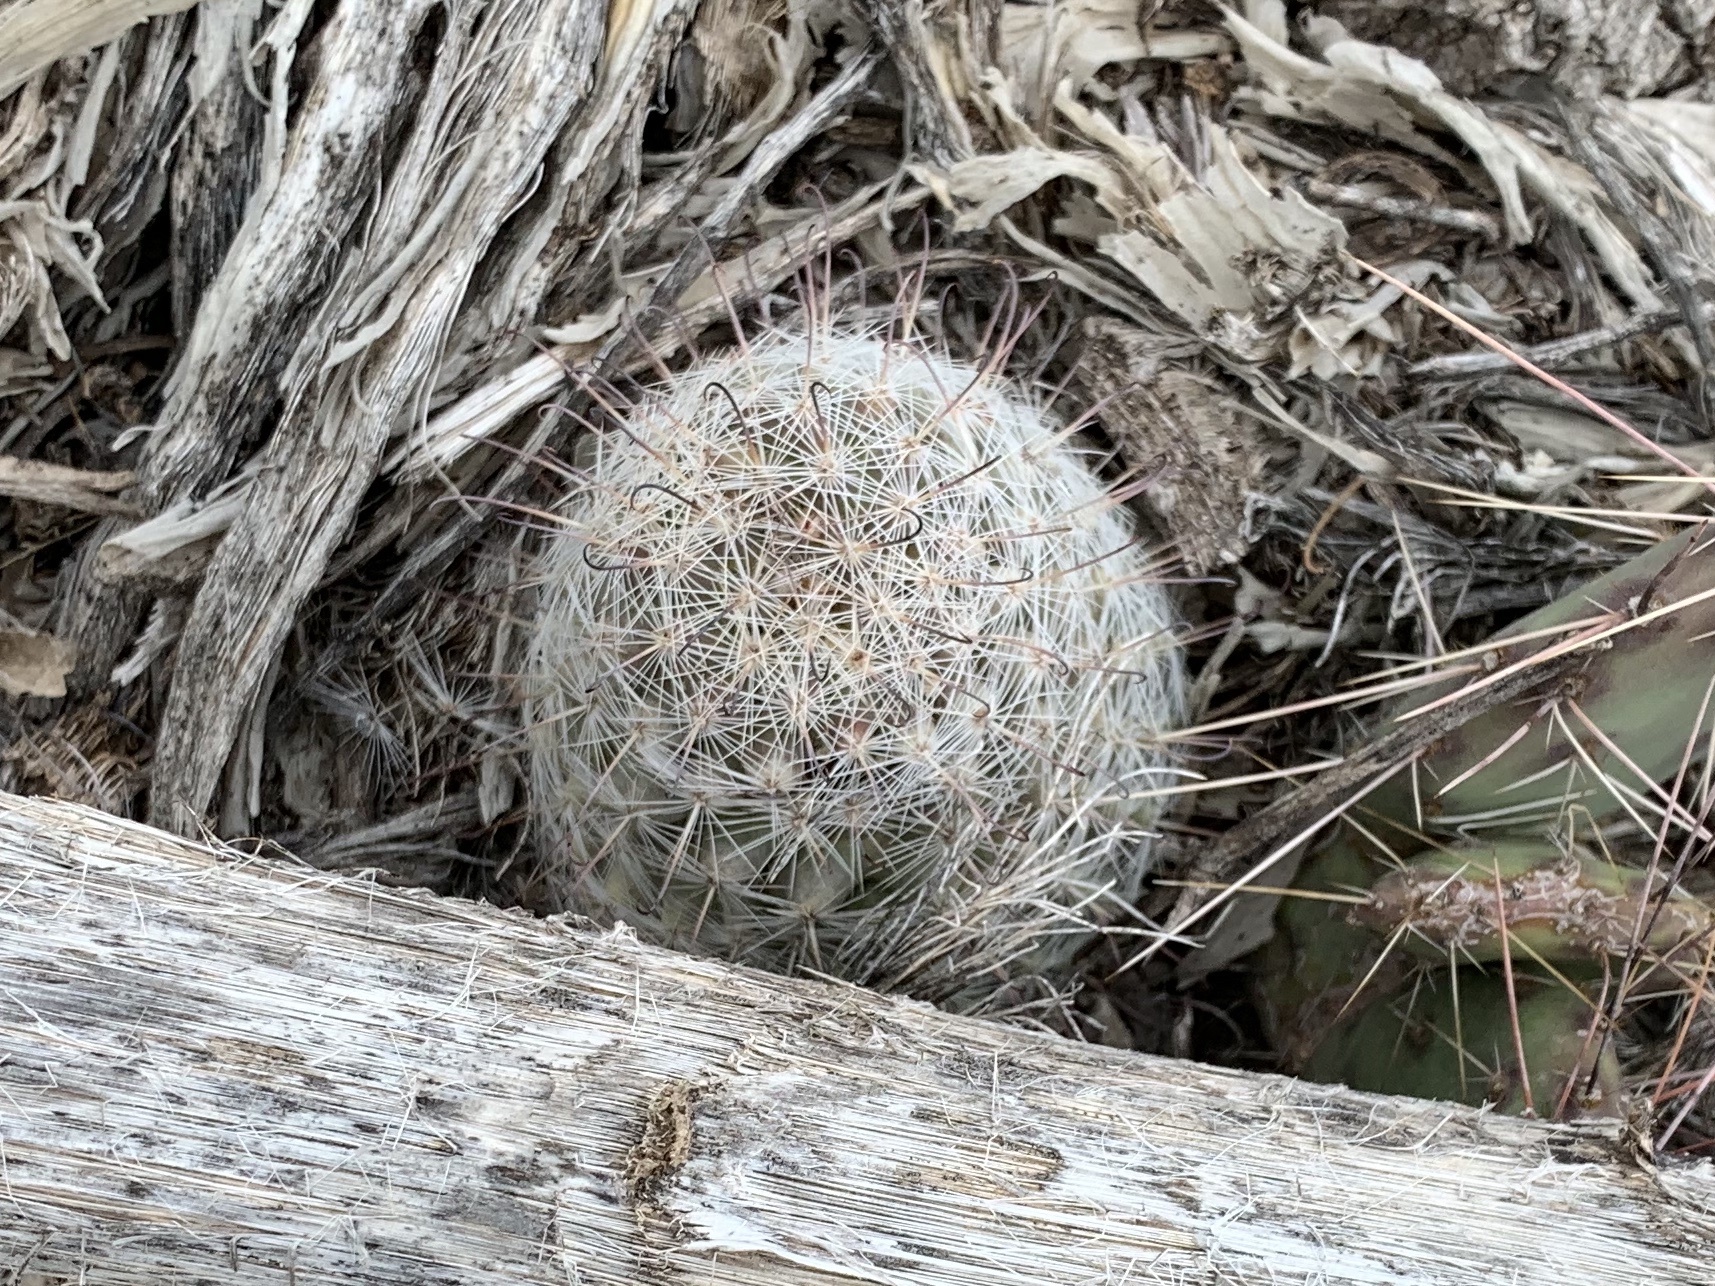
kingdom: Plantae
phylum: Tracheophyta
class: Magnoliopsida
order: Caryophyllales
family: Cactaceae
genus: Cochemiea
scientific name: Cochemiea grahamii
